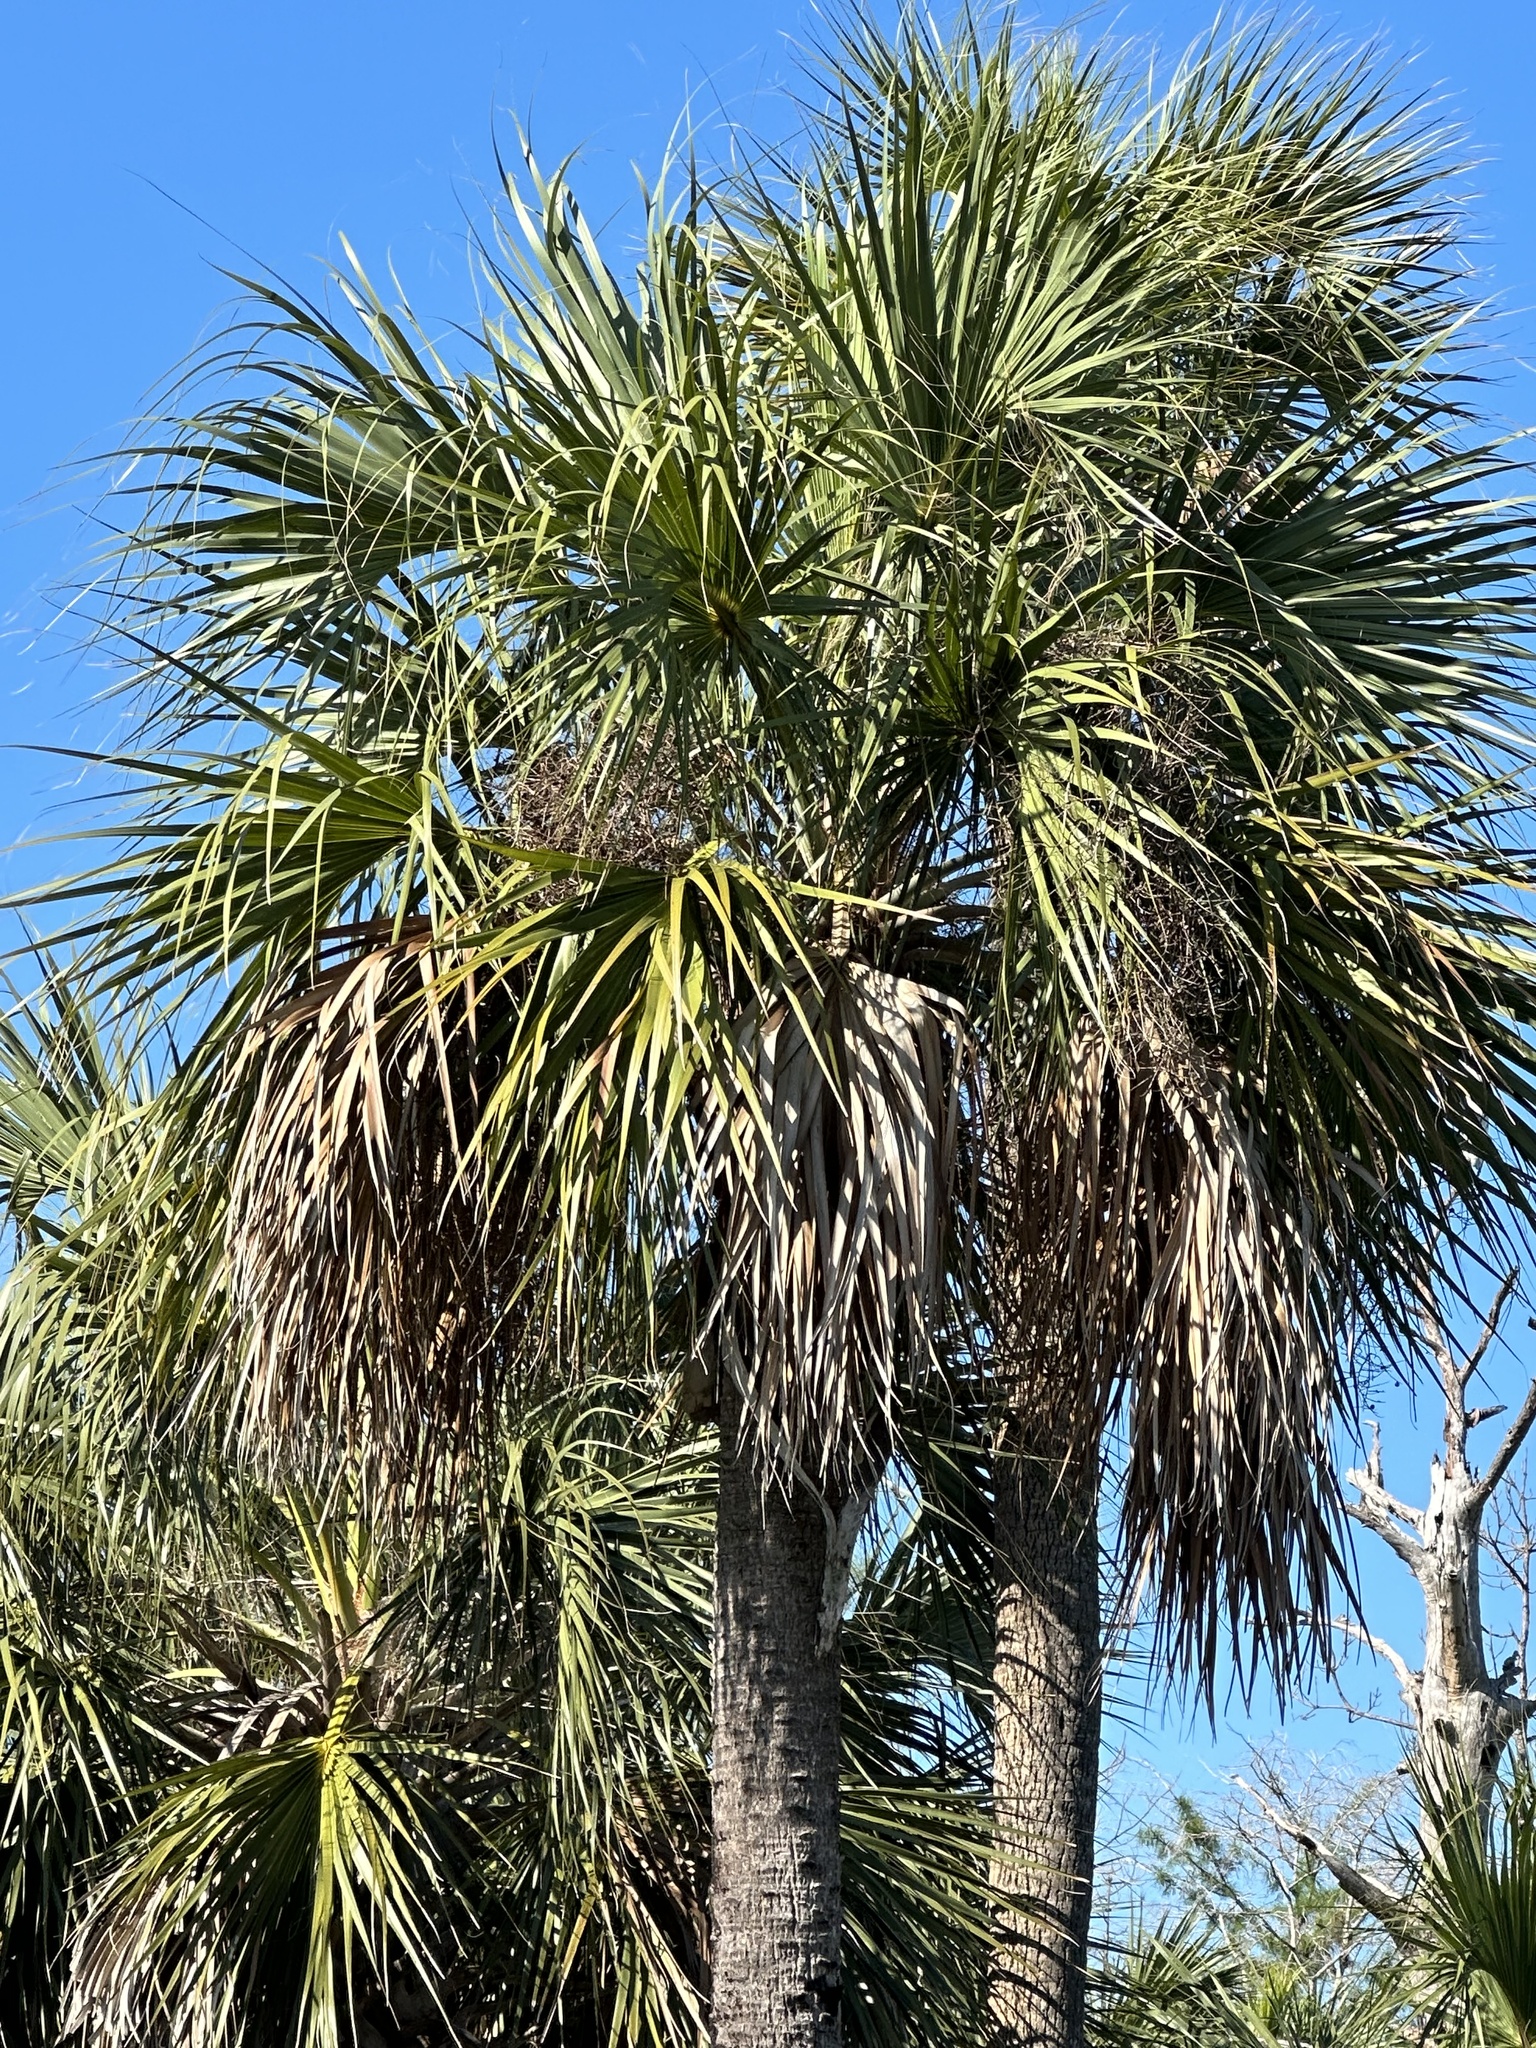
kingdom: Plantae
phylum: Tracheophyta
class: Liliopsida
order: Arecales
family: Arecaceae
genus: Sabal
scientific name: Sabal palmetto
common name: Blue palmetto
